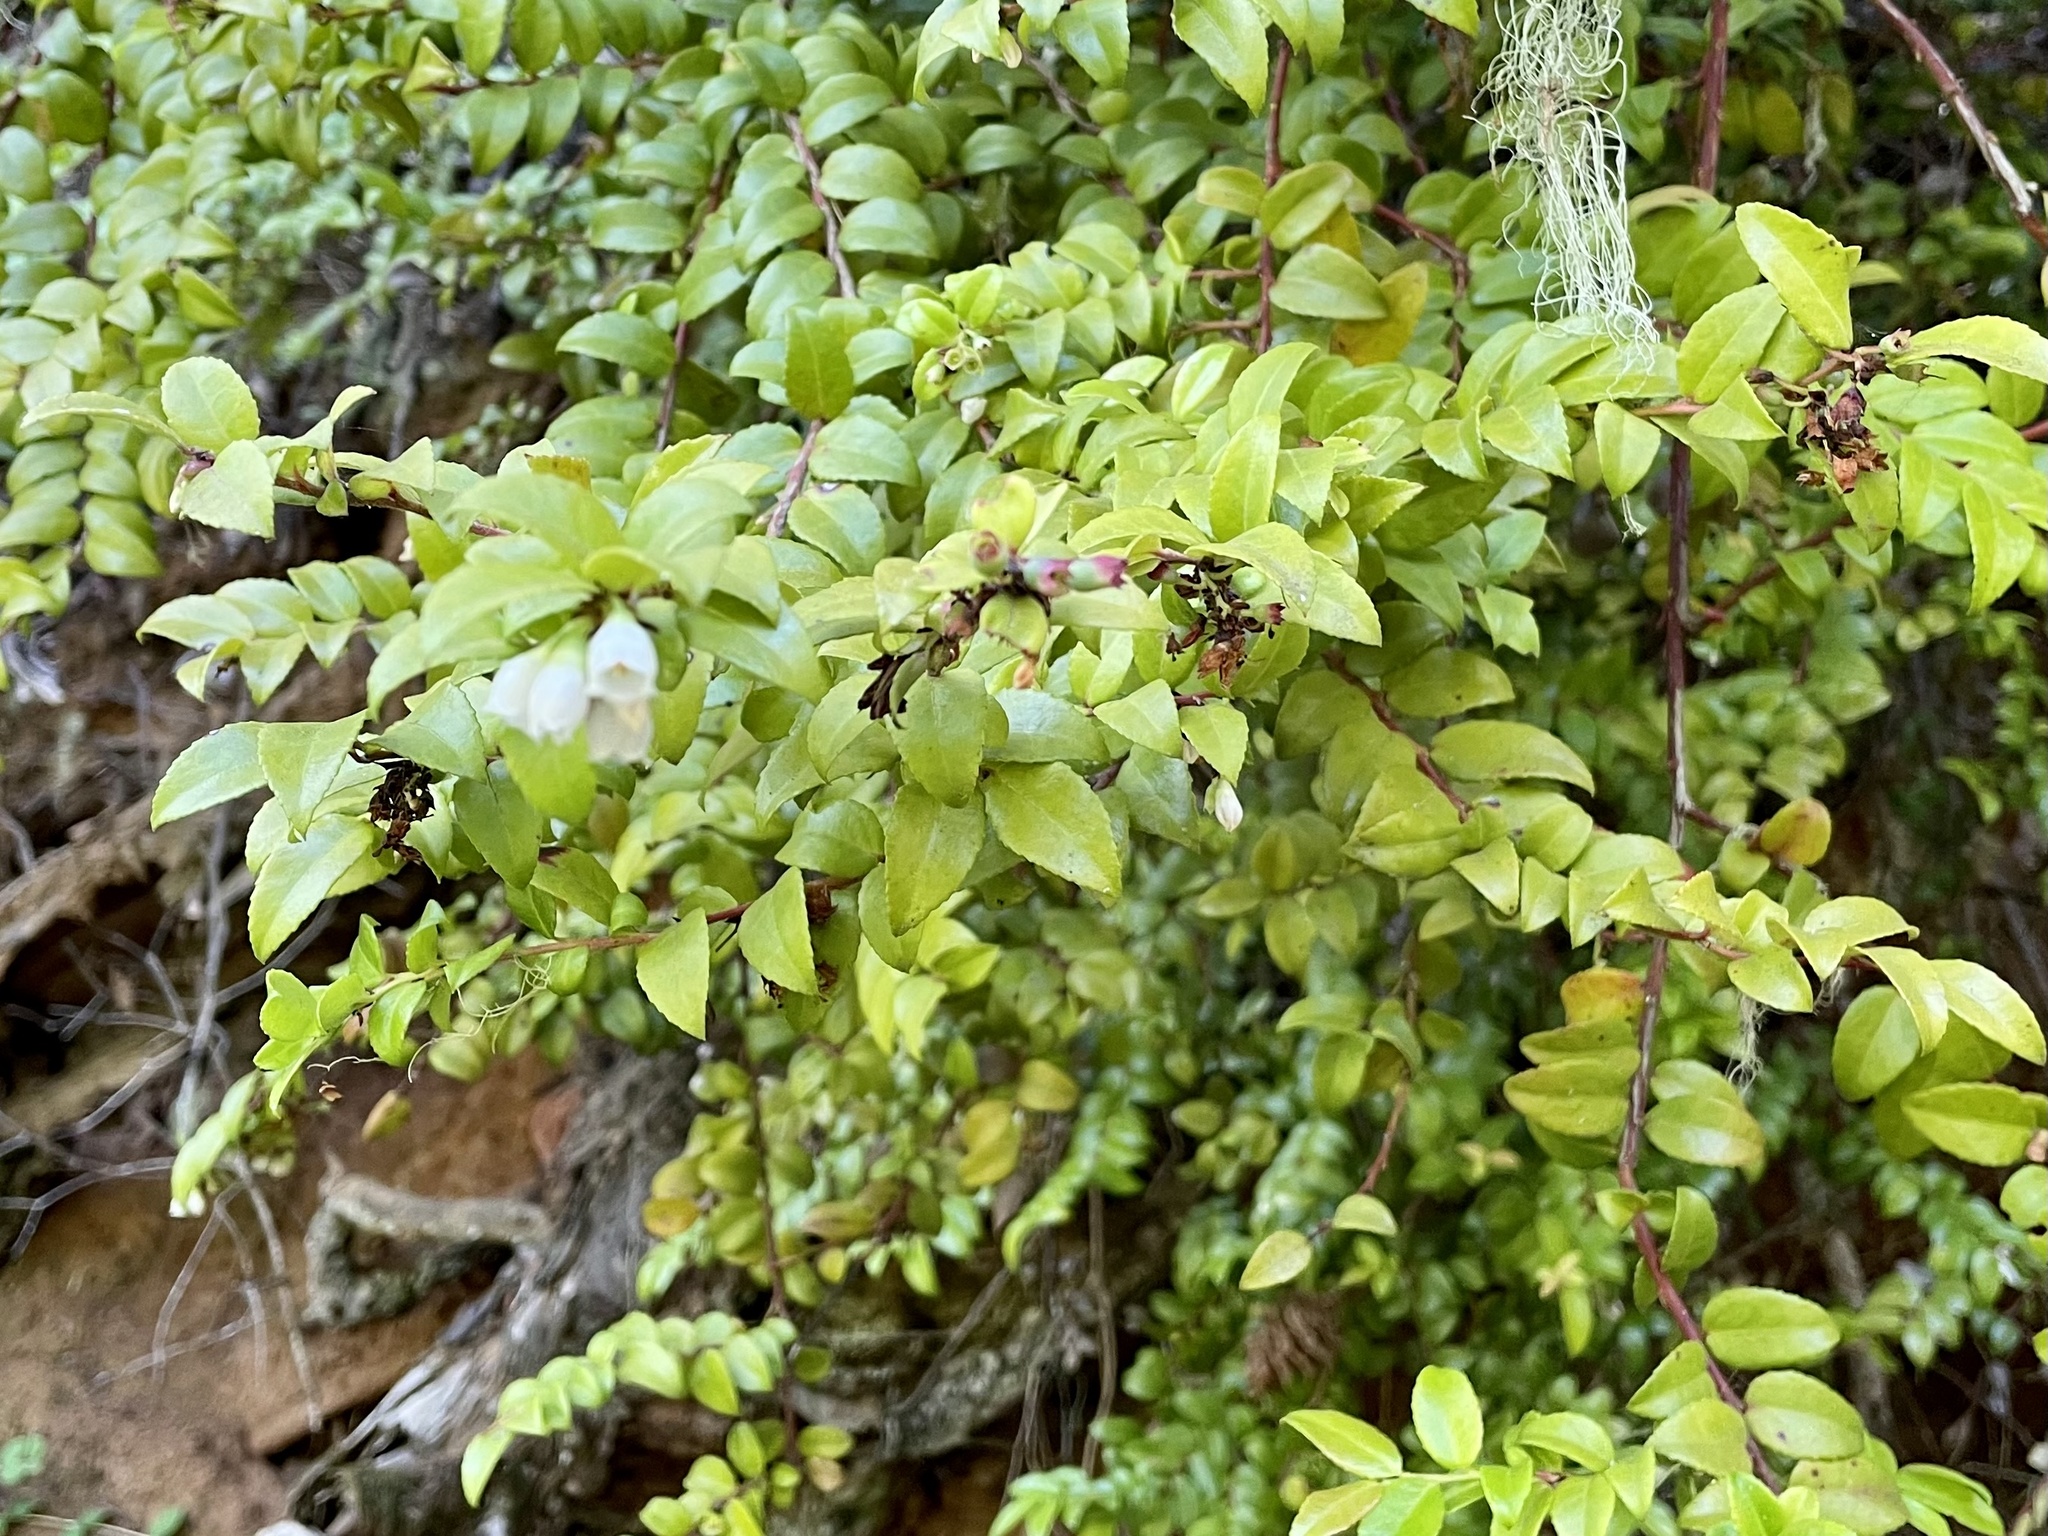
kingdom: Plantae
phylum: Tracheophyta
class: Magnoliopsida
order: Ericales
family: Ericaceae
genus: Vaccinium
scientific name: Vaccinium ovatum
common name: California-huckleberry
